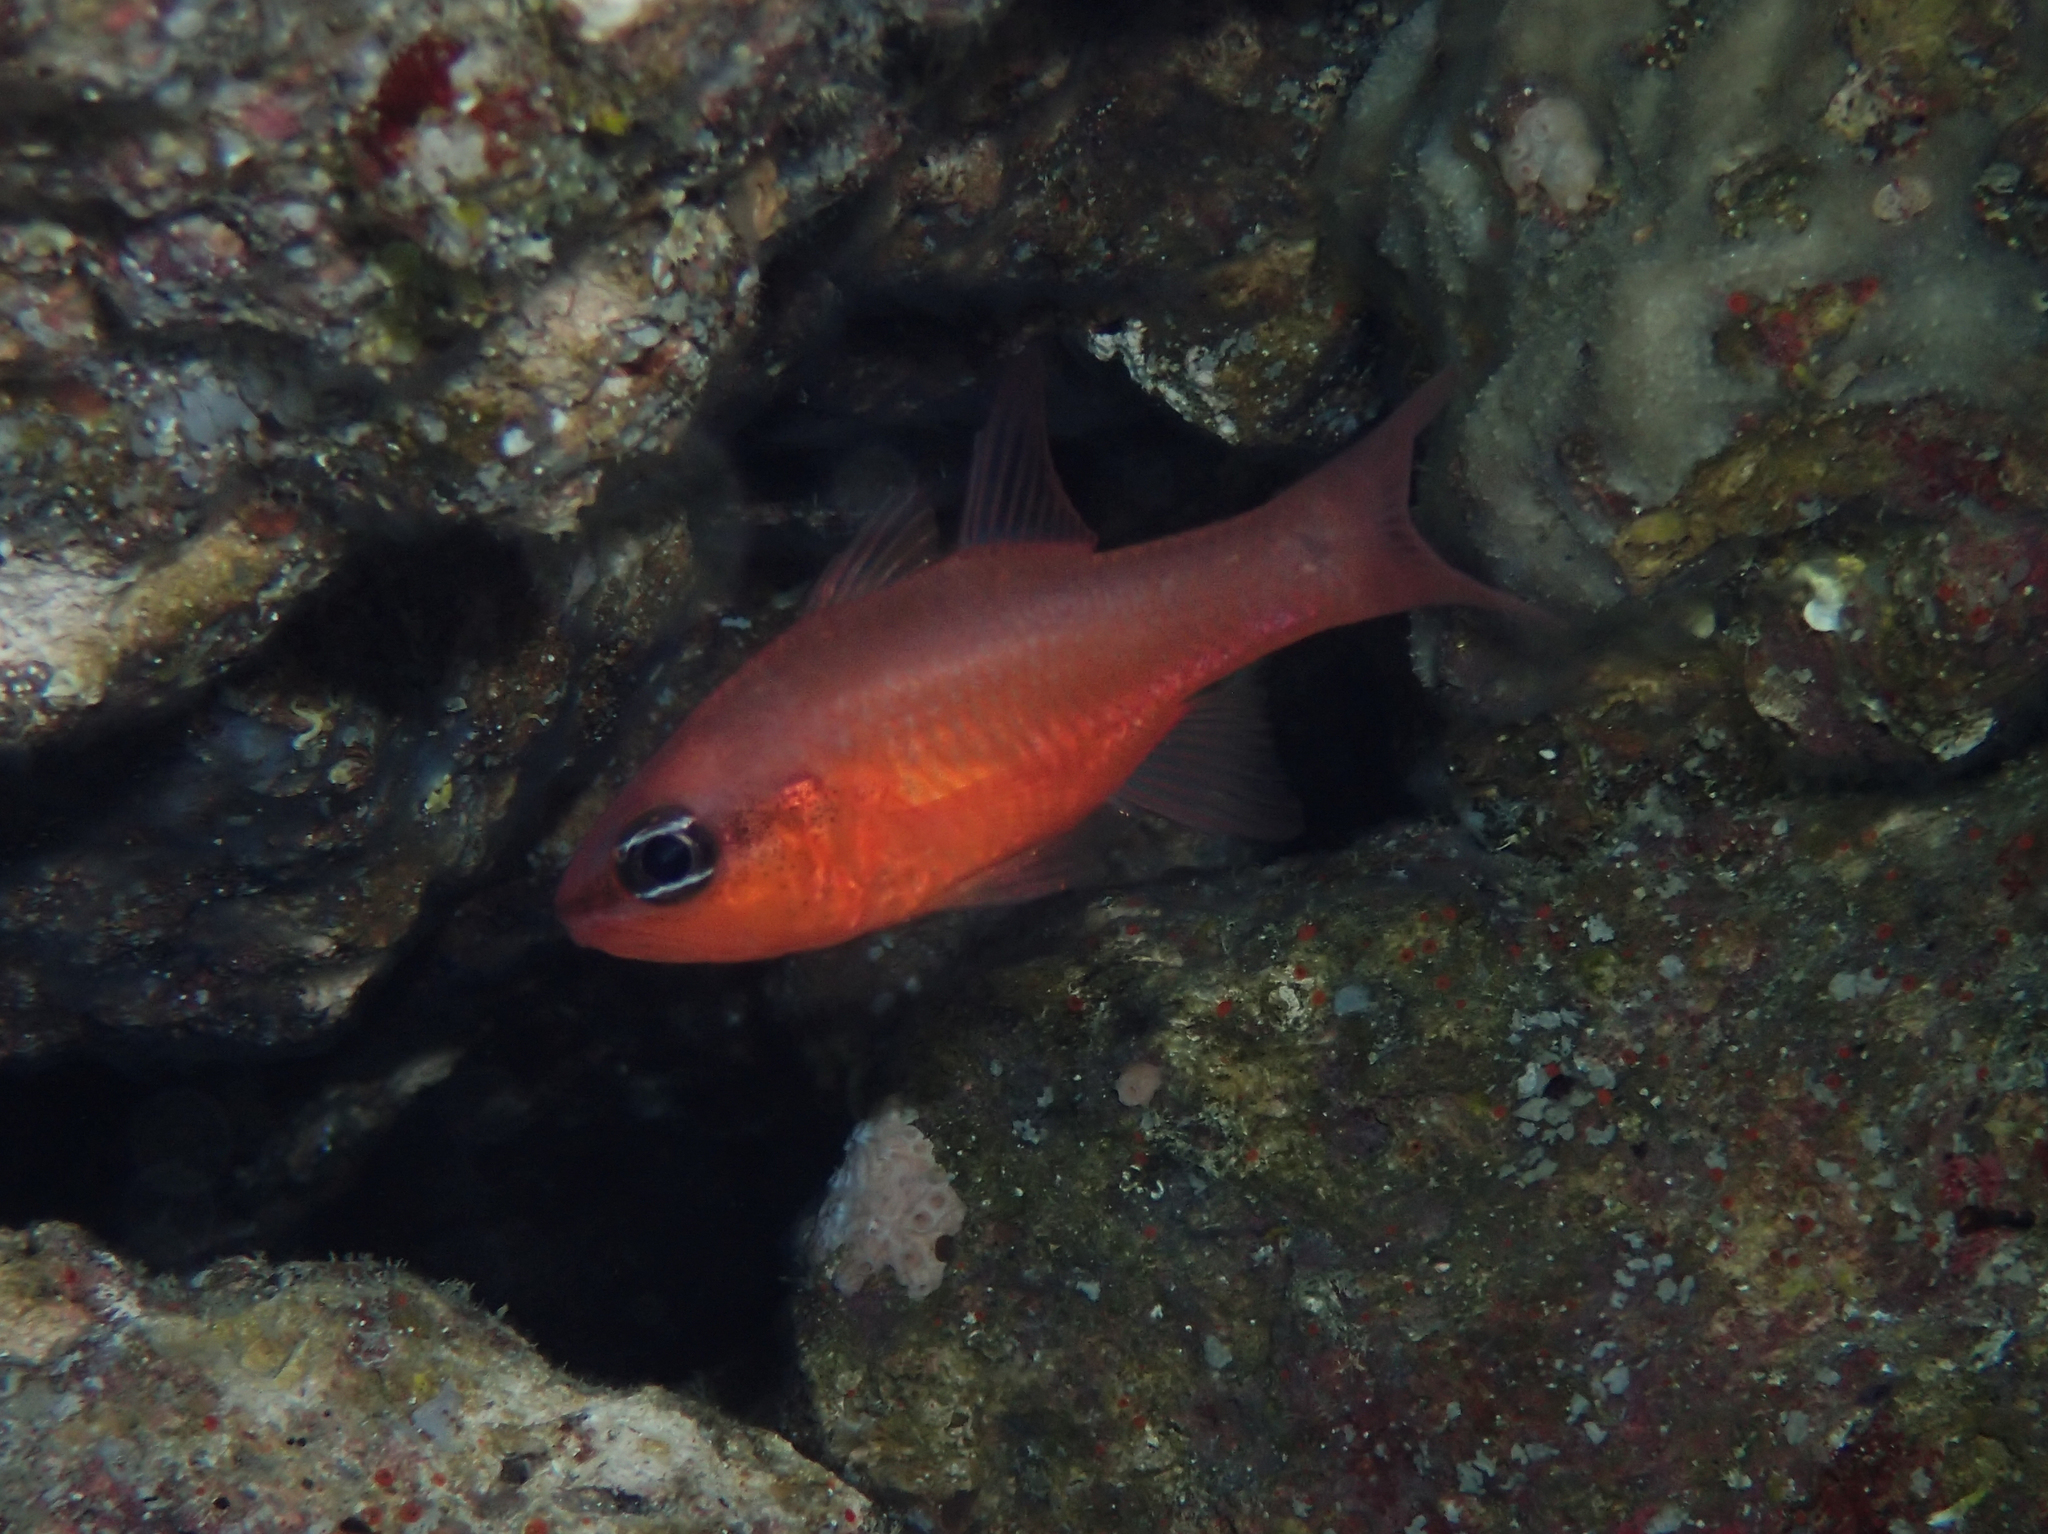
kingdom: Animalia
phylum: Chordata
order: Perciformes
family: Apogonidae
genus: Apogon
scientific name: Apogon imberbis
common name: Cardinal fish
